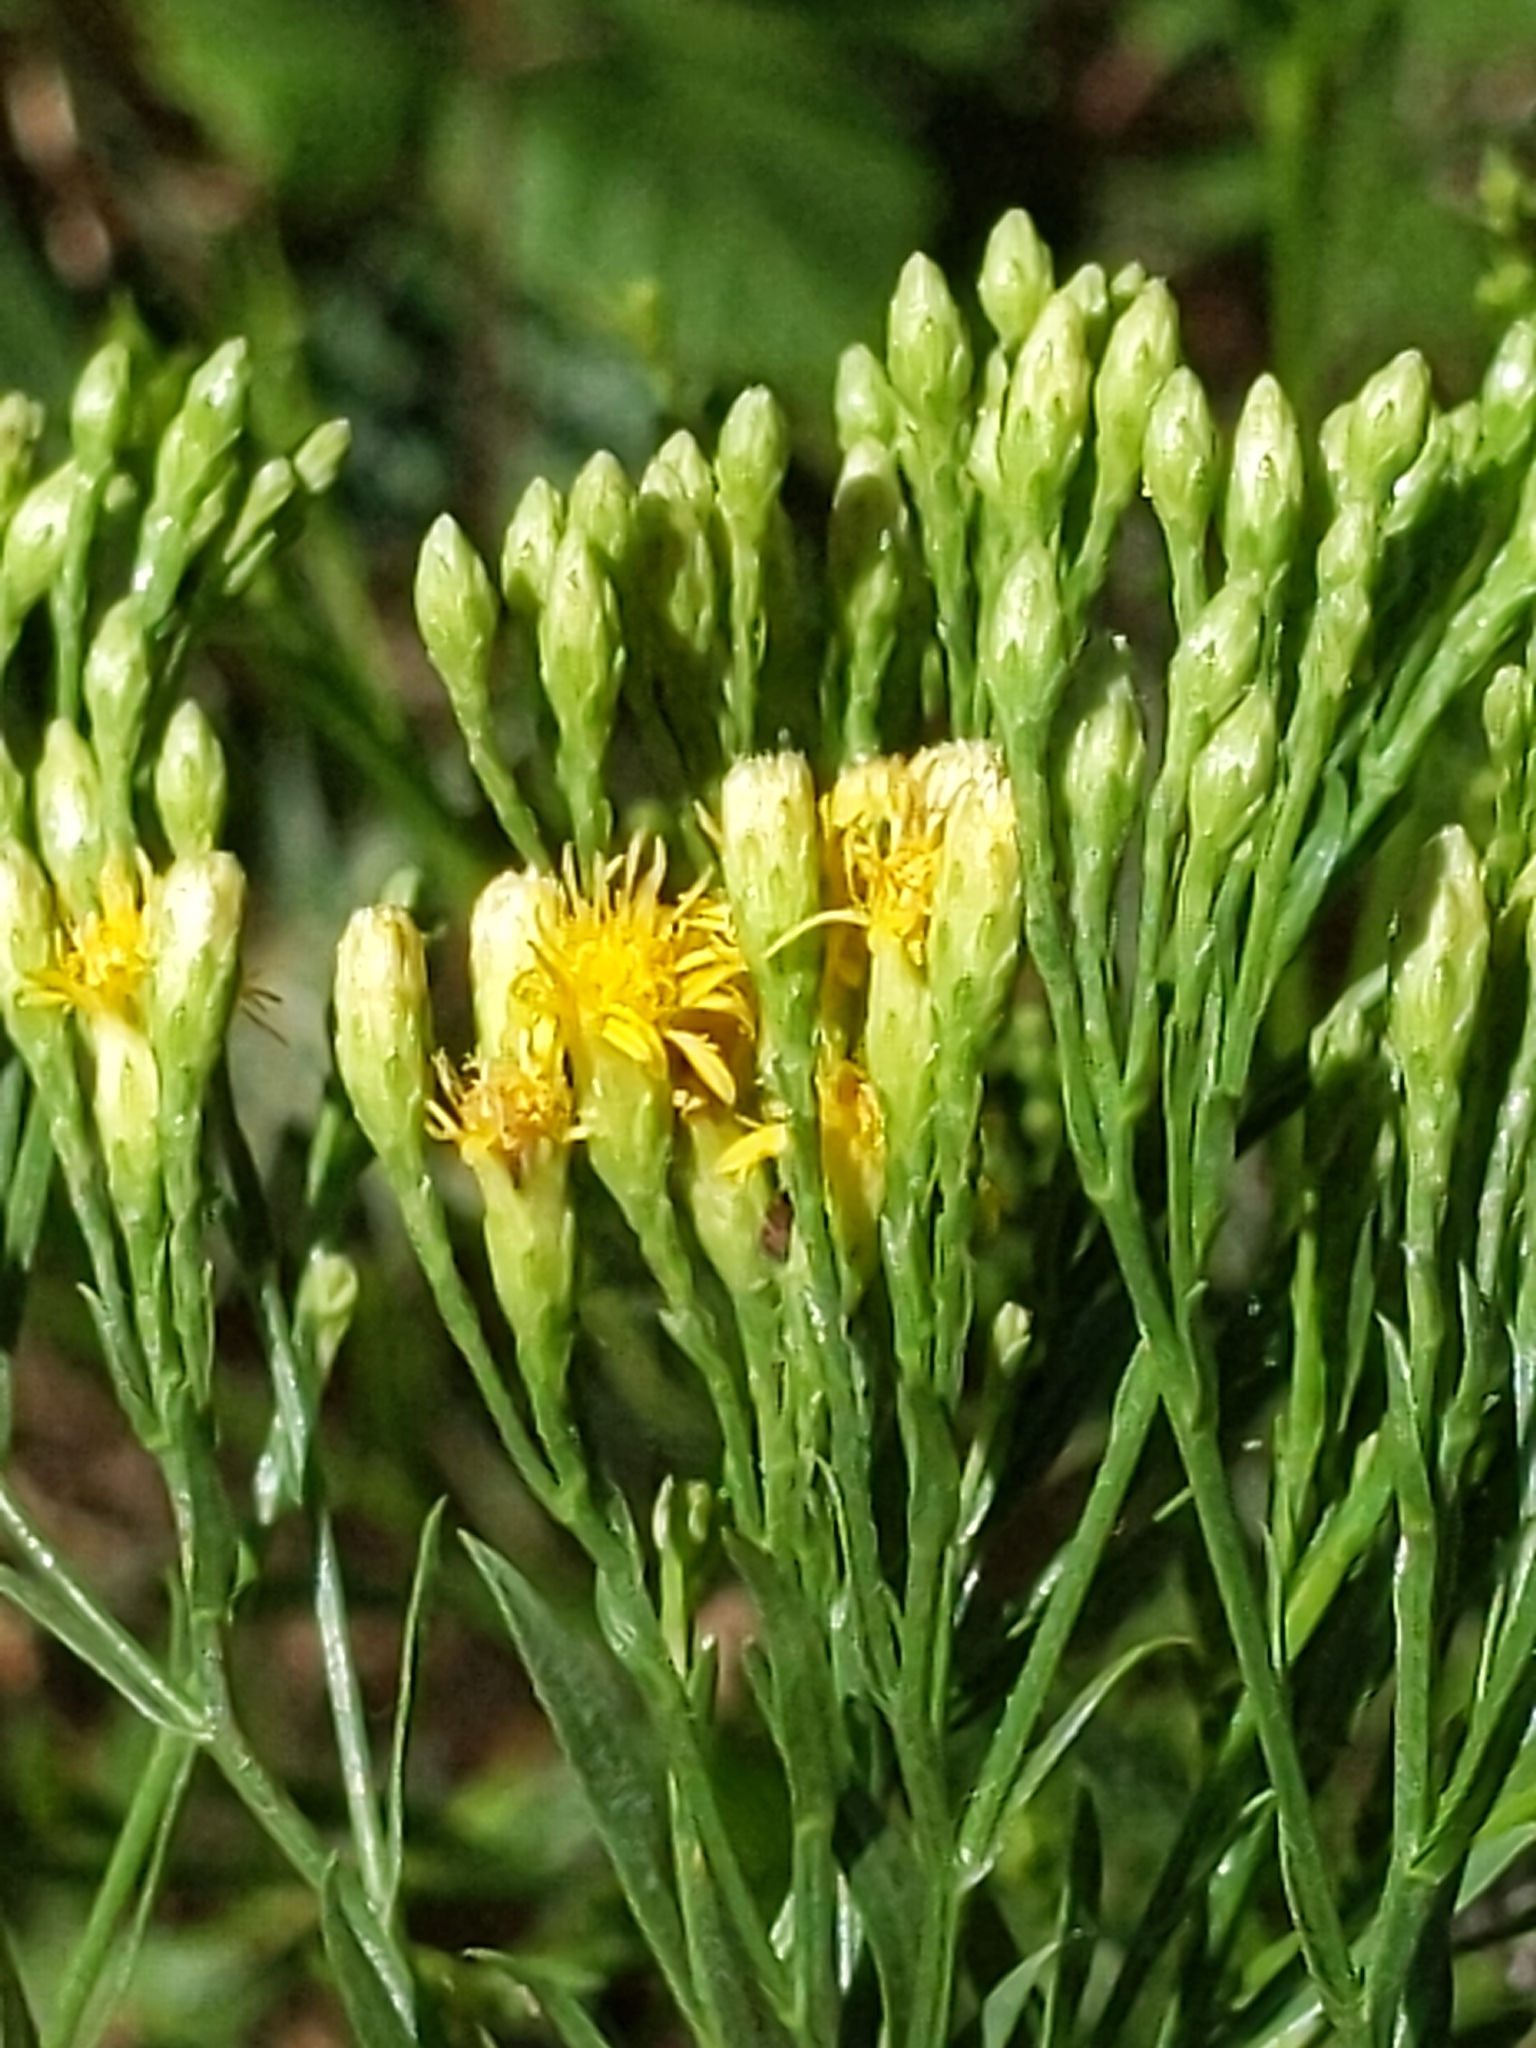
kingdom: Plantae
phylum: Tracheophyta
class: Magnoliopsida
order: Asterales
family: Asteraceae
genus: Euthamia
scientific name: Euthamia occidentalis
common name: Western goldentop
